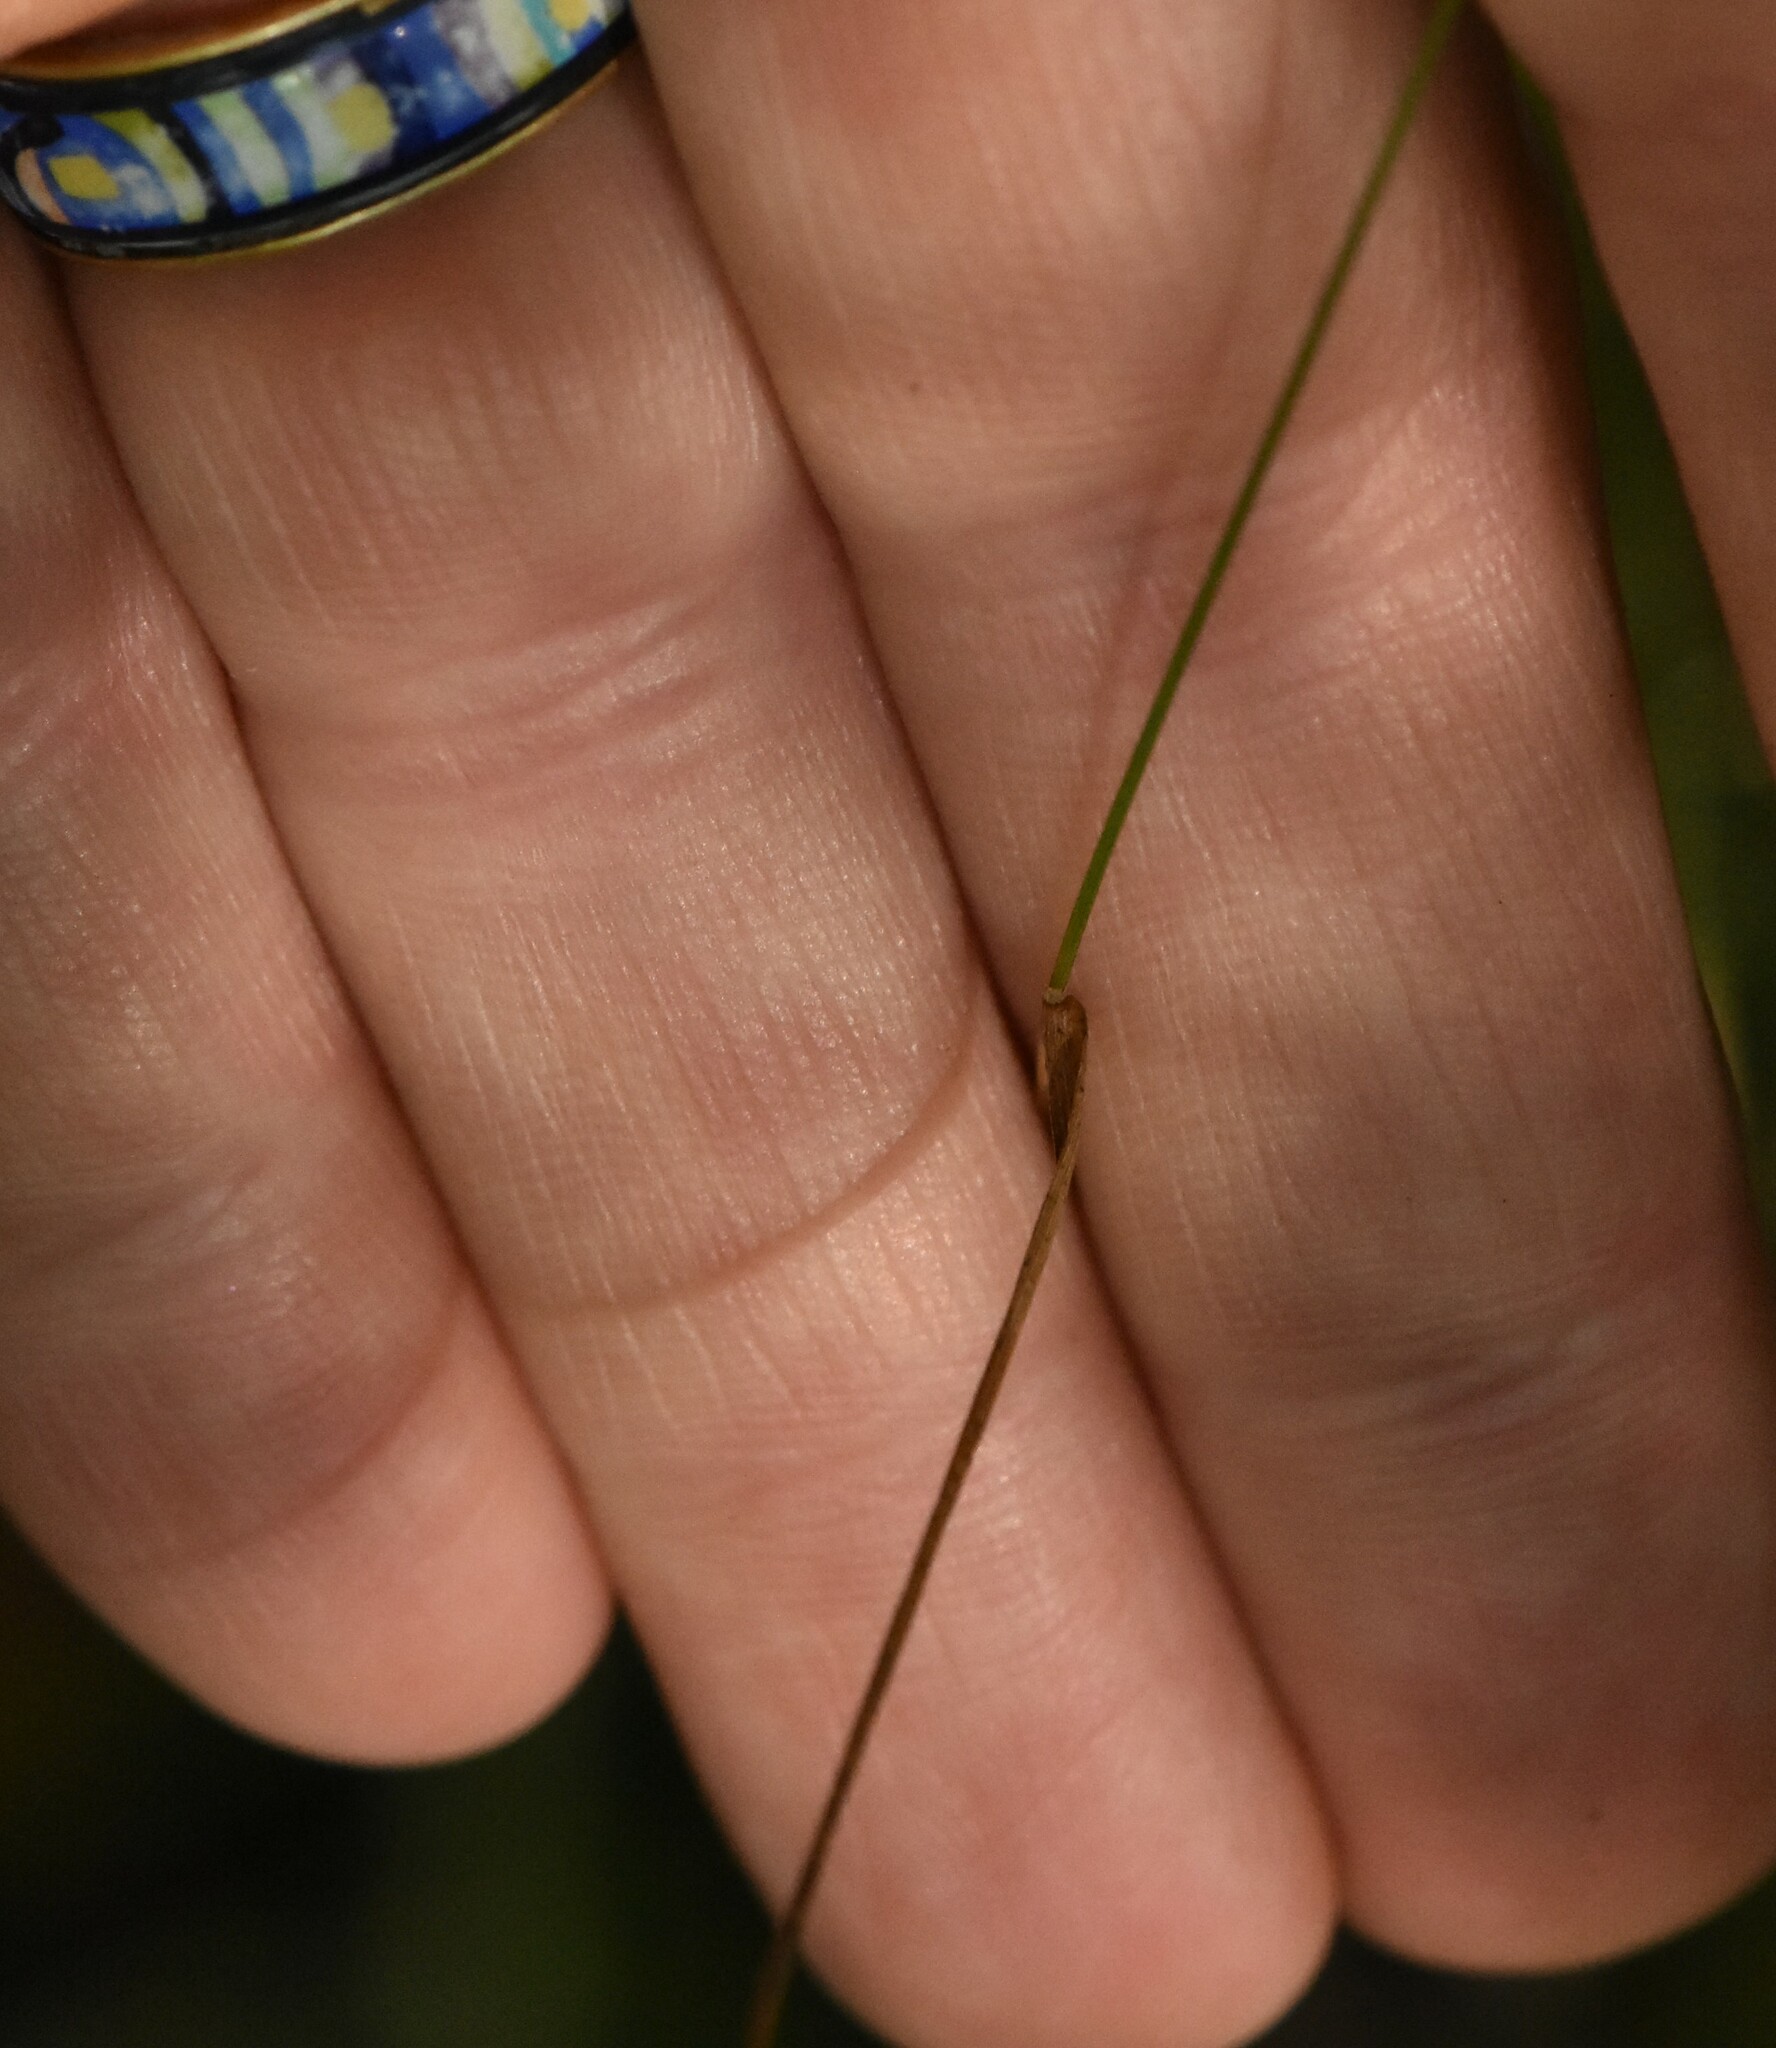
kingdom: Plantae
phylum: Tracheophyta
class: Liliopsida
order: Poales
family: Poaceae
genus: Agrostis
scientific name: Agrostis capillaris
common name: Colonial bentgrass
